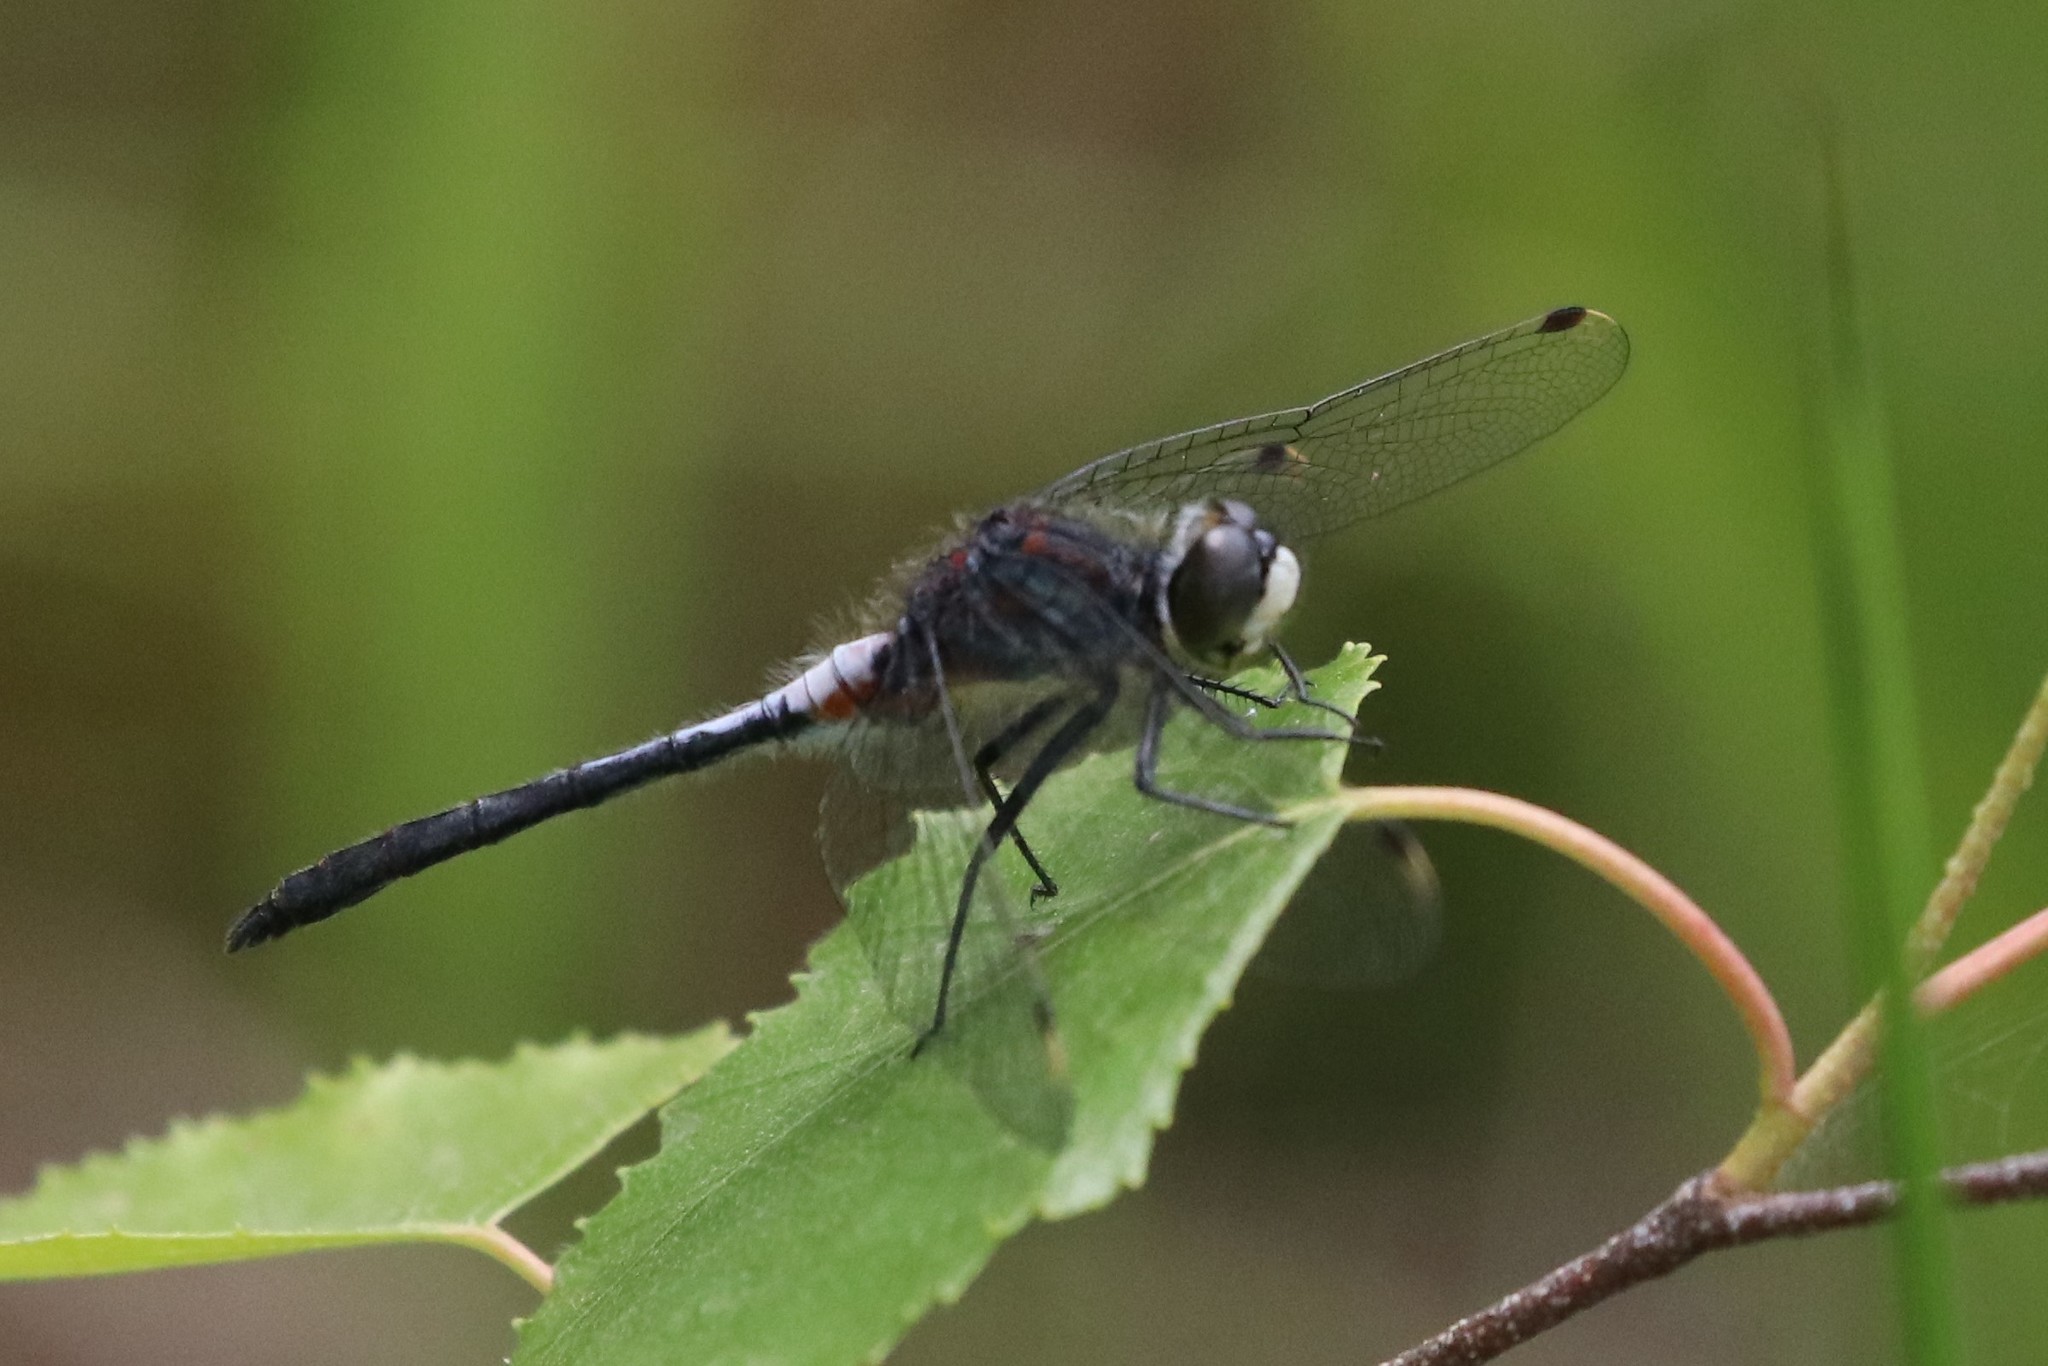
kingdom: Animalia
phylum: Arthropoda
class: Insecta
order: Odonata
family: Libellulidae
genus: Leucorrhinia
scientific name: Leucorrhinia proxima
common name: Belted whiteface
